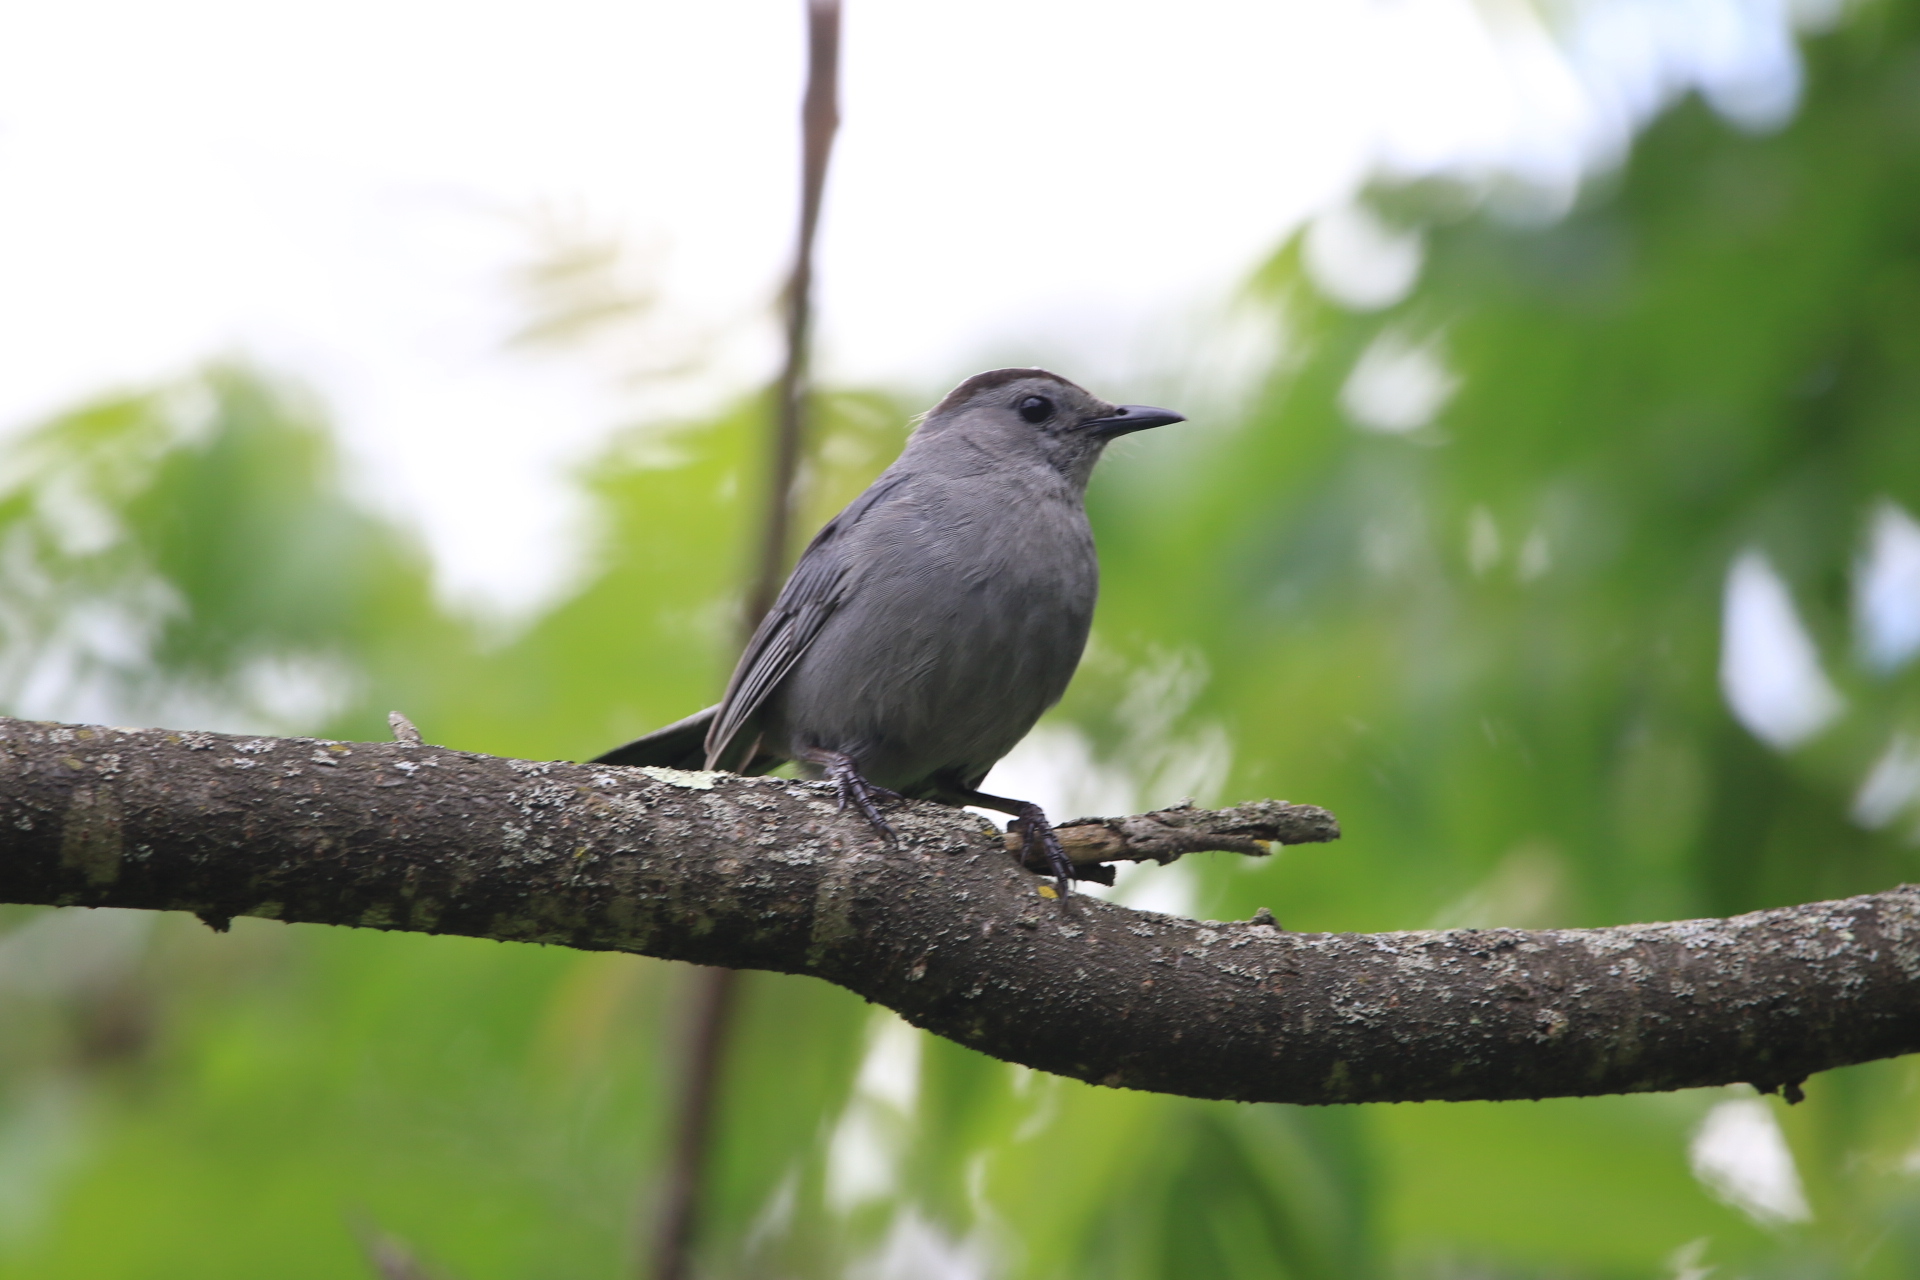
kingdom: Animalia
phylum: Chordata
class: Aves
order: Passeriformes
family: Mimidae
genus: Dumetella
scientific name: Dumetella carolinensis
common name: Gray catbird
